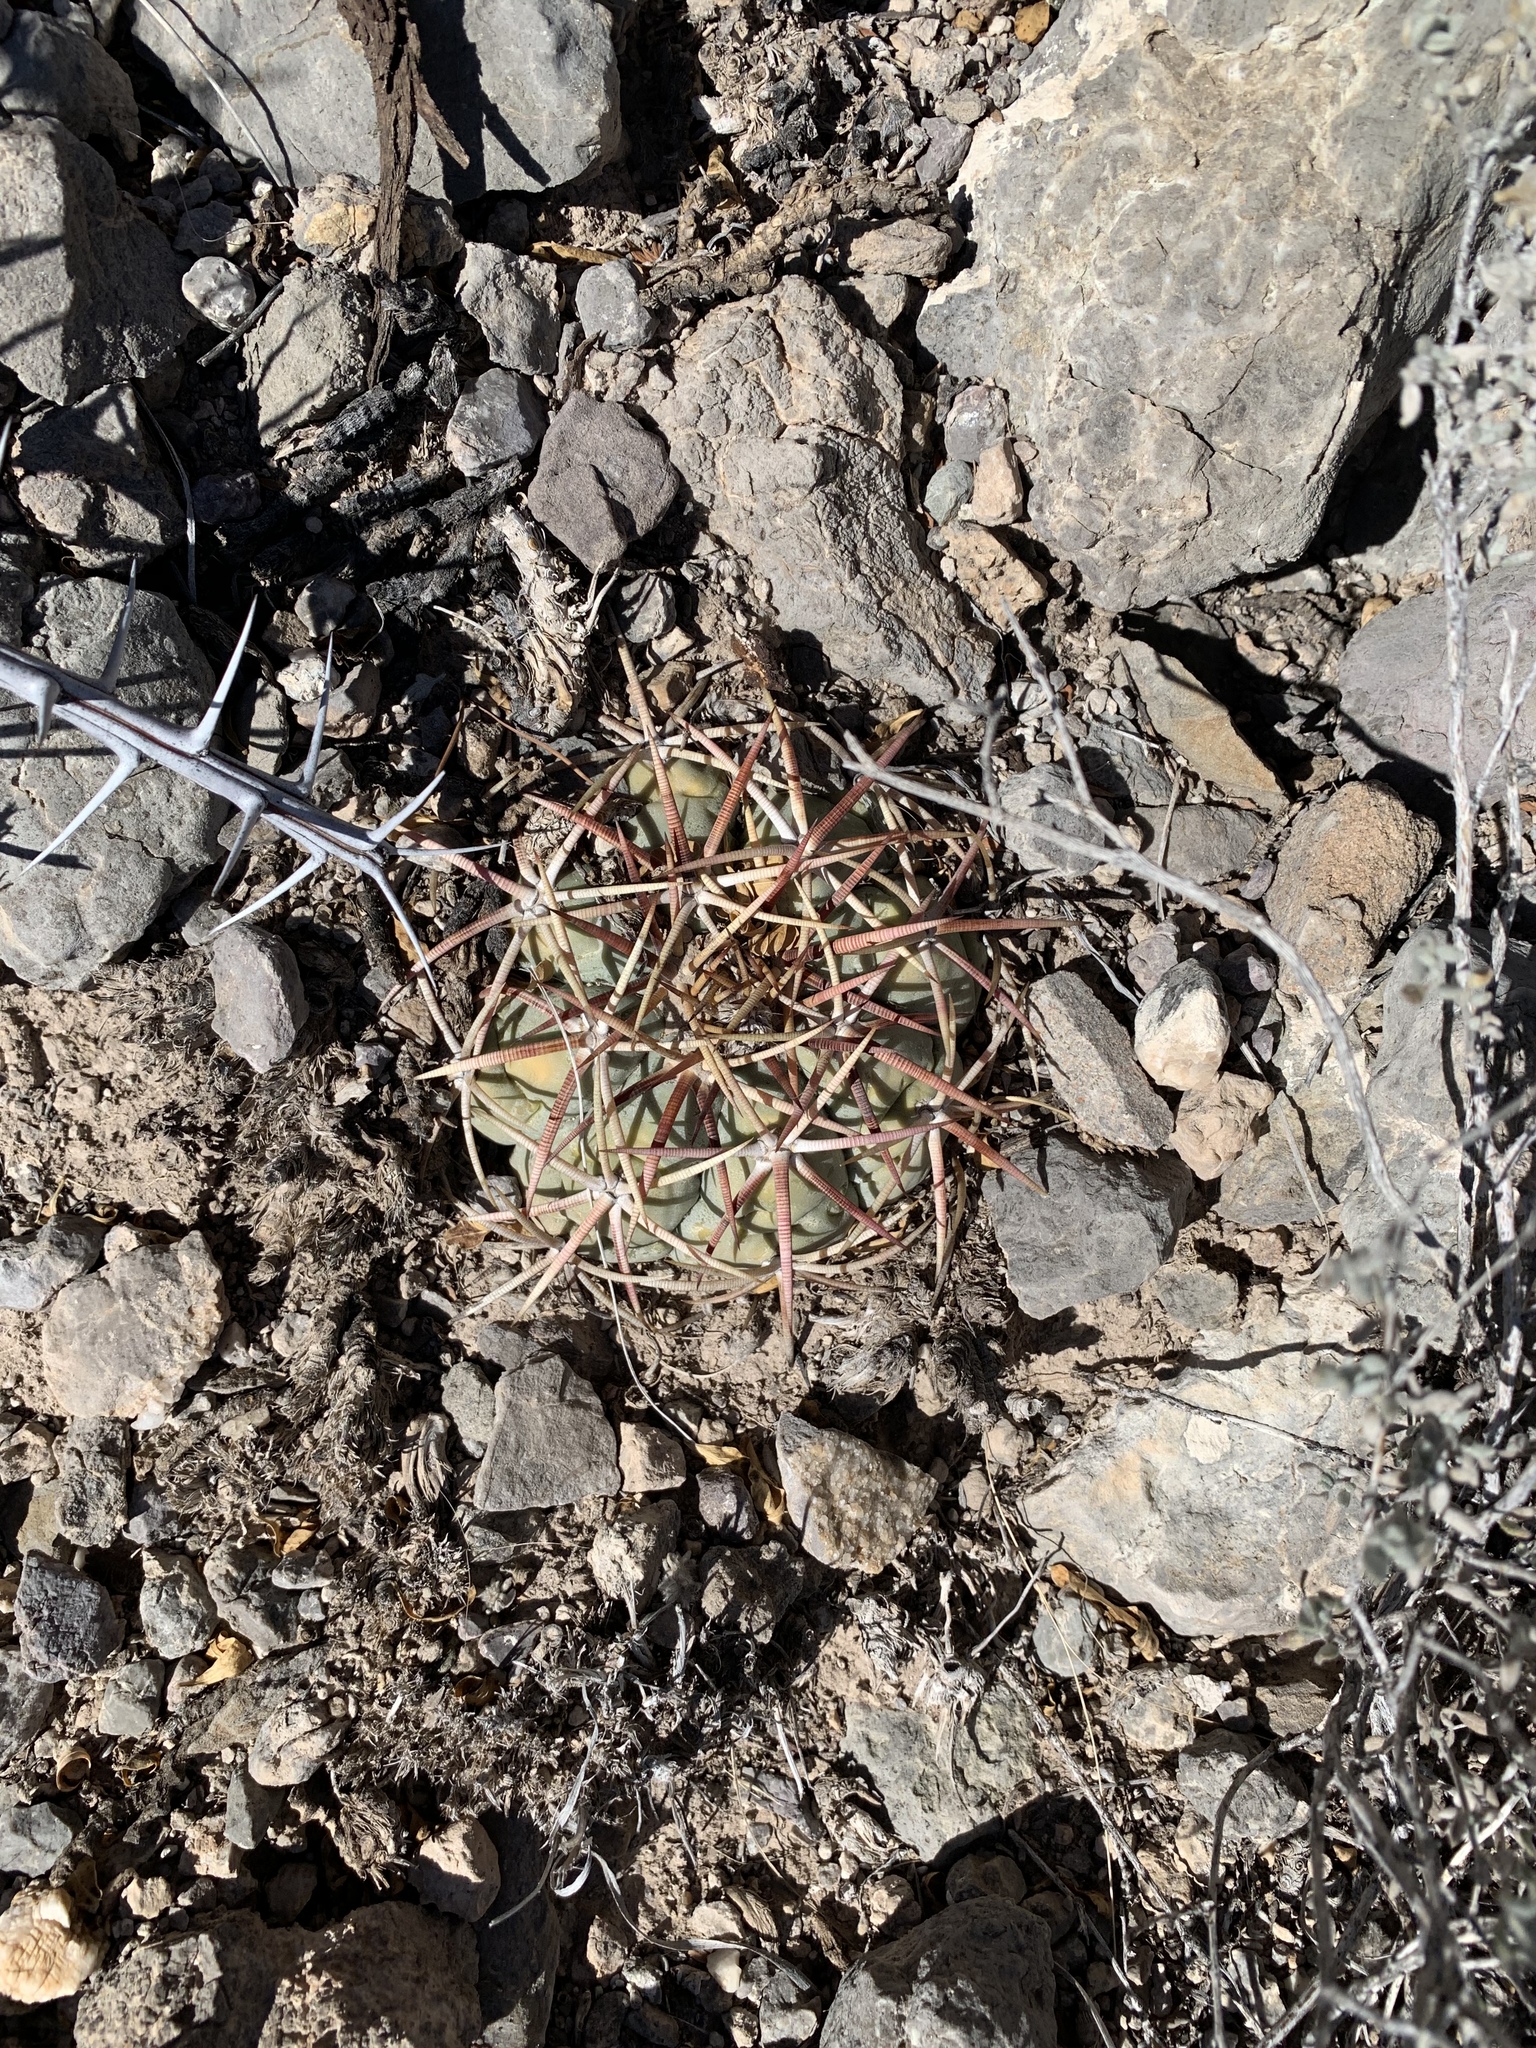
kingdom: Plantae
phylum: Tracheophyta
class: Magnoliopsida
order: Caryophyllales
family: Cactaceae
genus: Echinocactus
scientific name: Echinocactus horizonthalonius
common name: Devilshead
